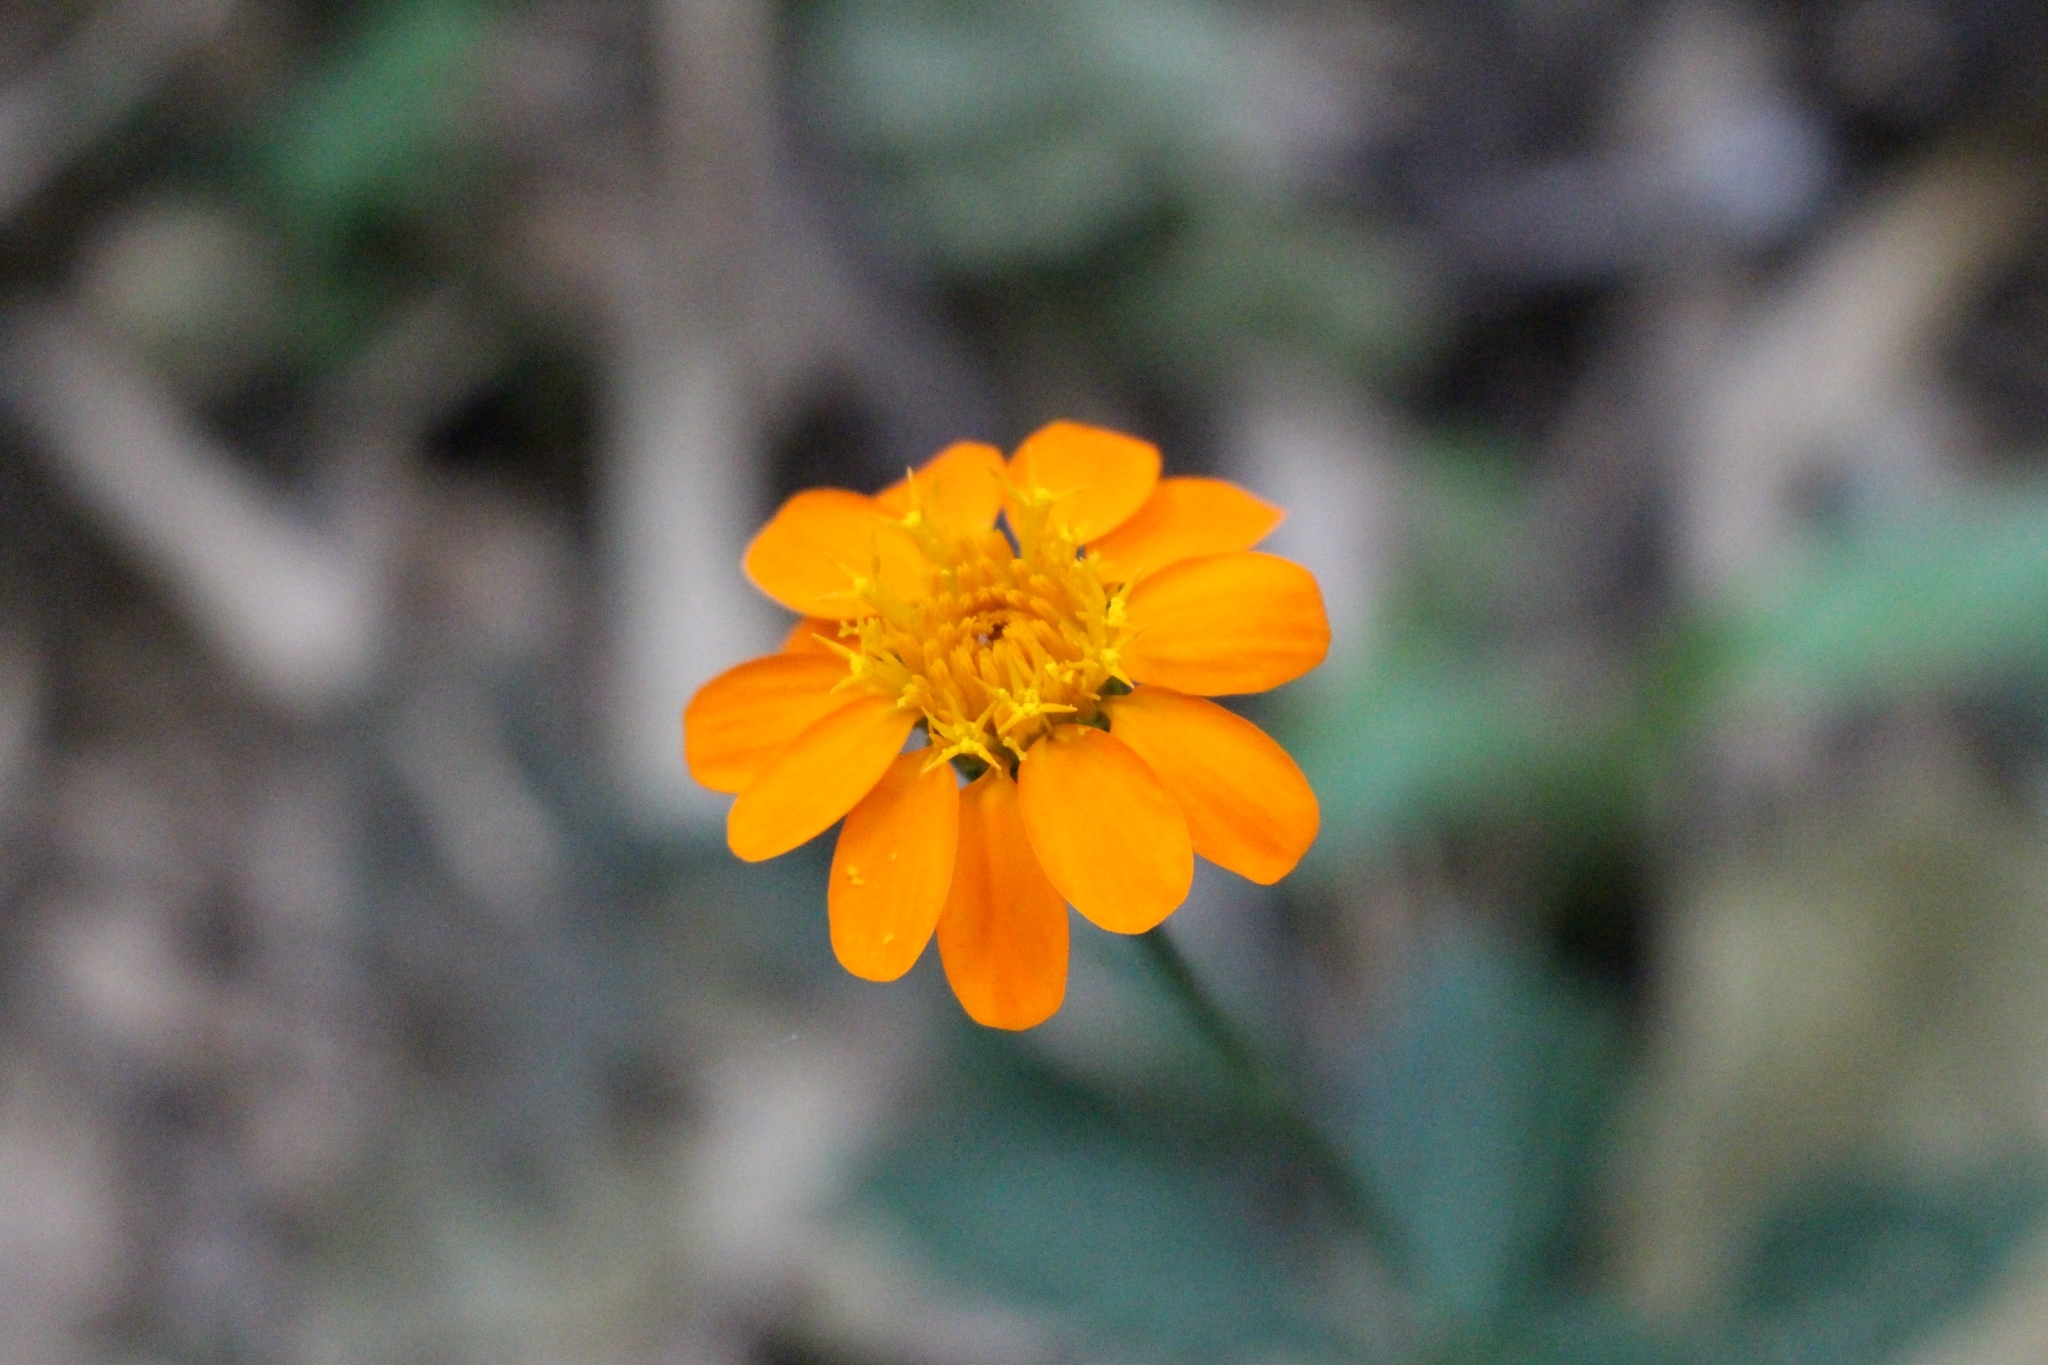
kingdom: Plantae
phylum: Tracheophyta
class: Magnoliopsida
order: Asterales
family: Asteraceae
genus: Comaclinium
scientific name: Comaclinium montanum
